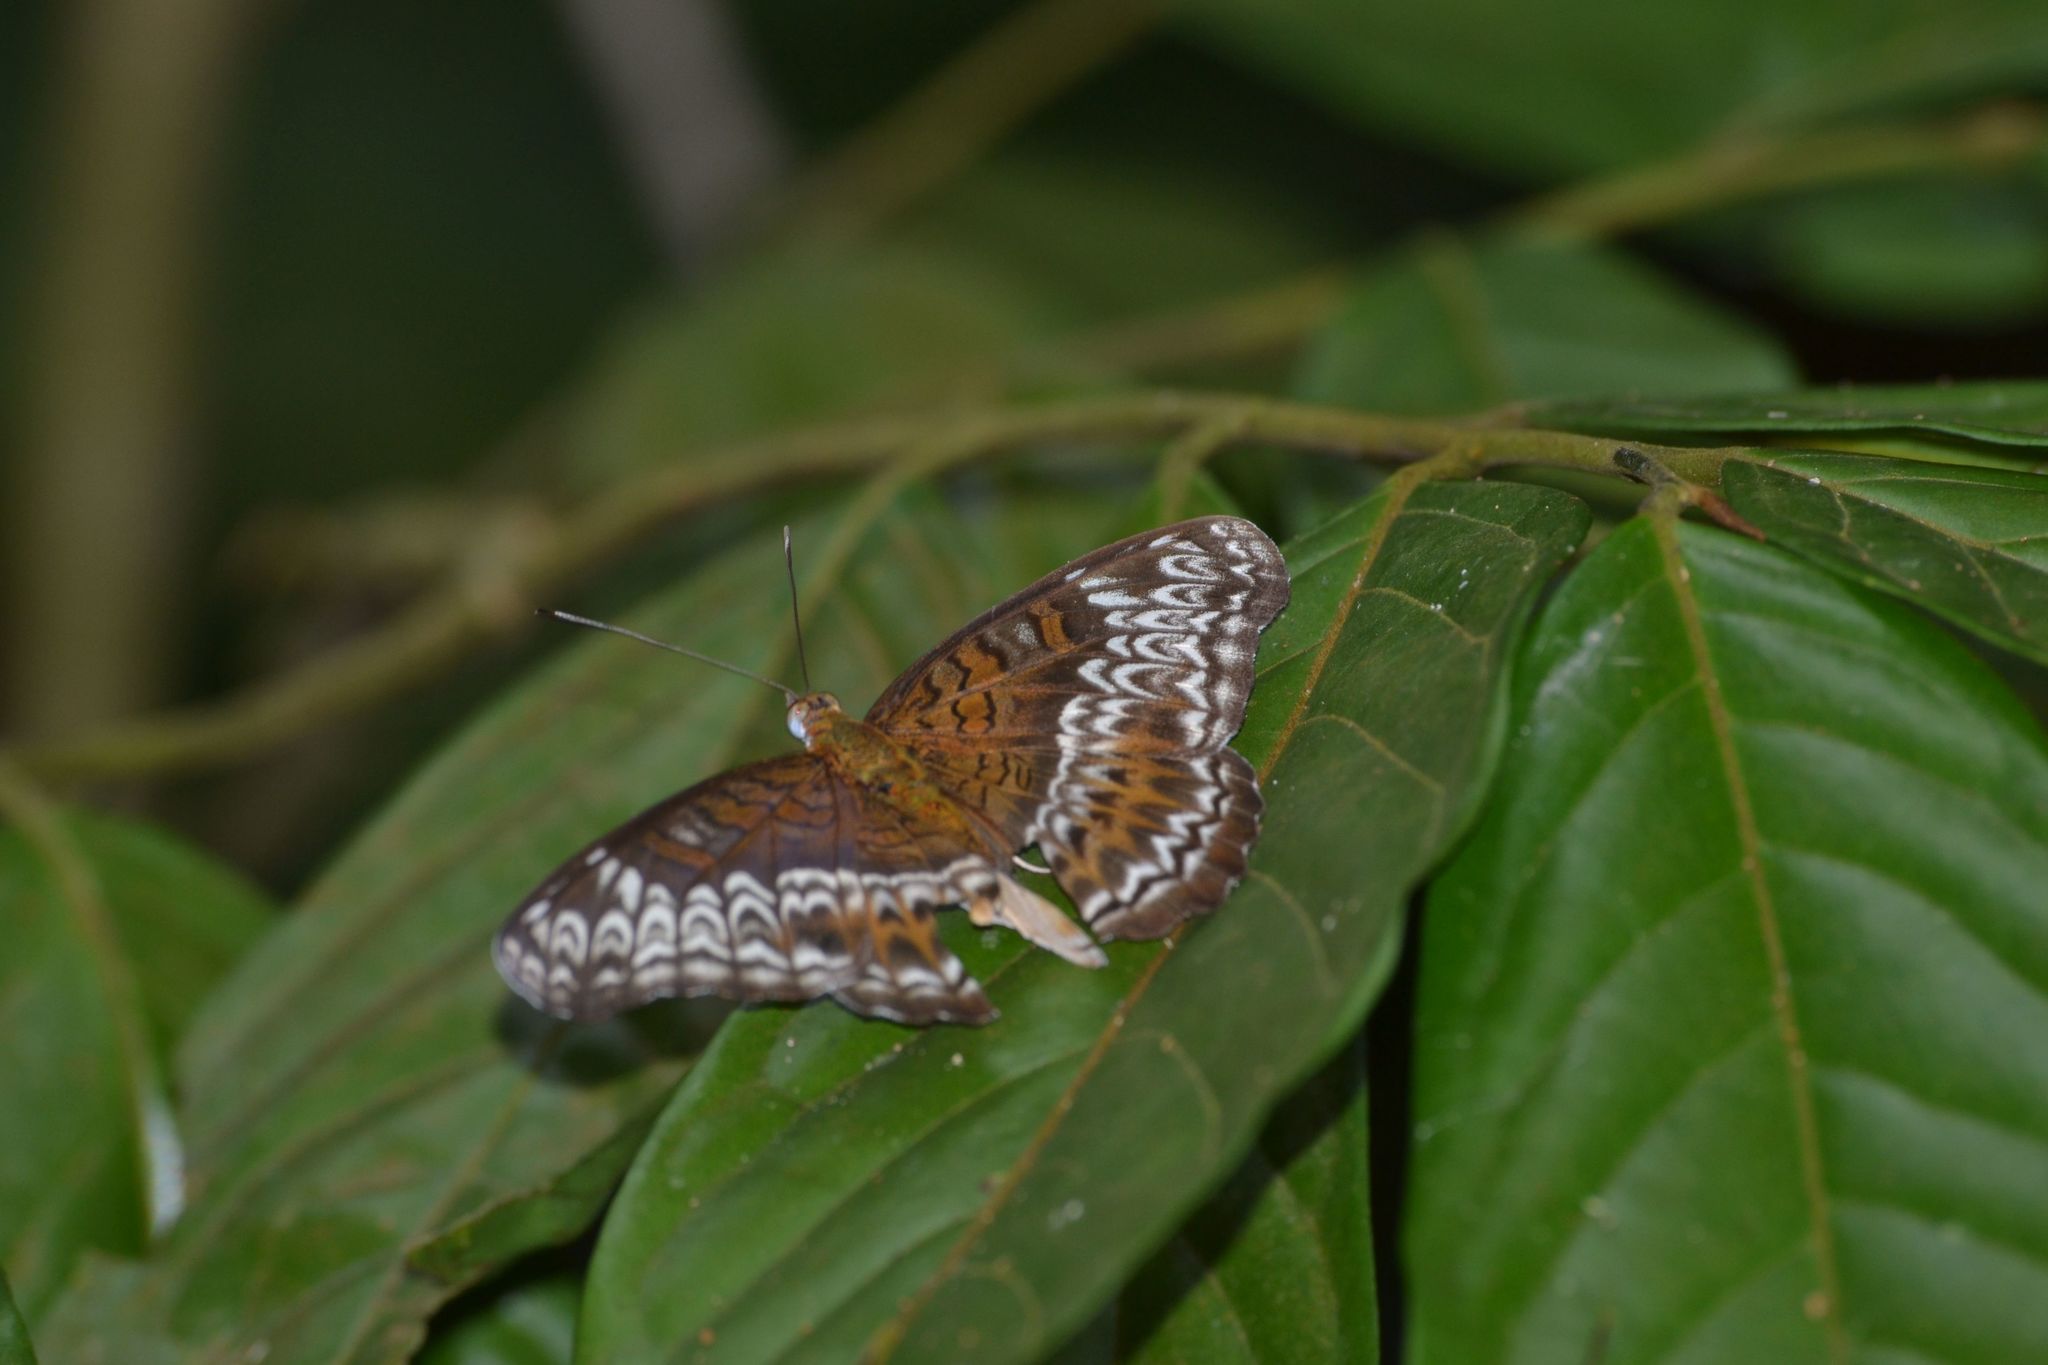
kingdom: Animalia
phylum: Arthropoda
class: Insecta
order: Lepidoptera
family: Nymphalidae
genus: Lebadea
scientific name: Lebadea martha
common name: Knight
